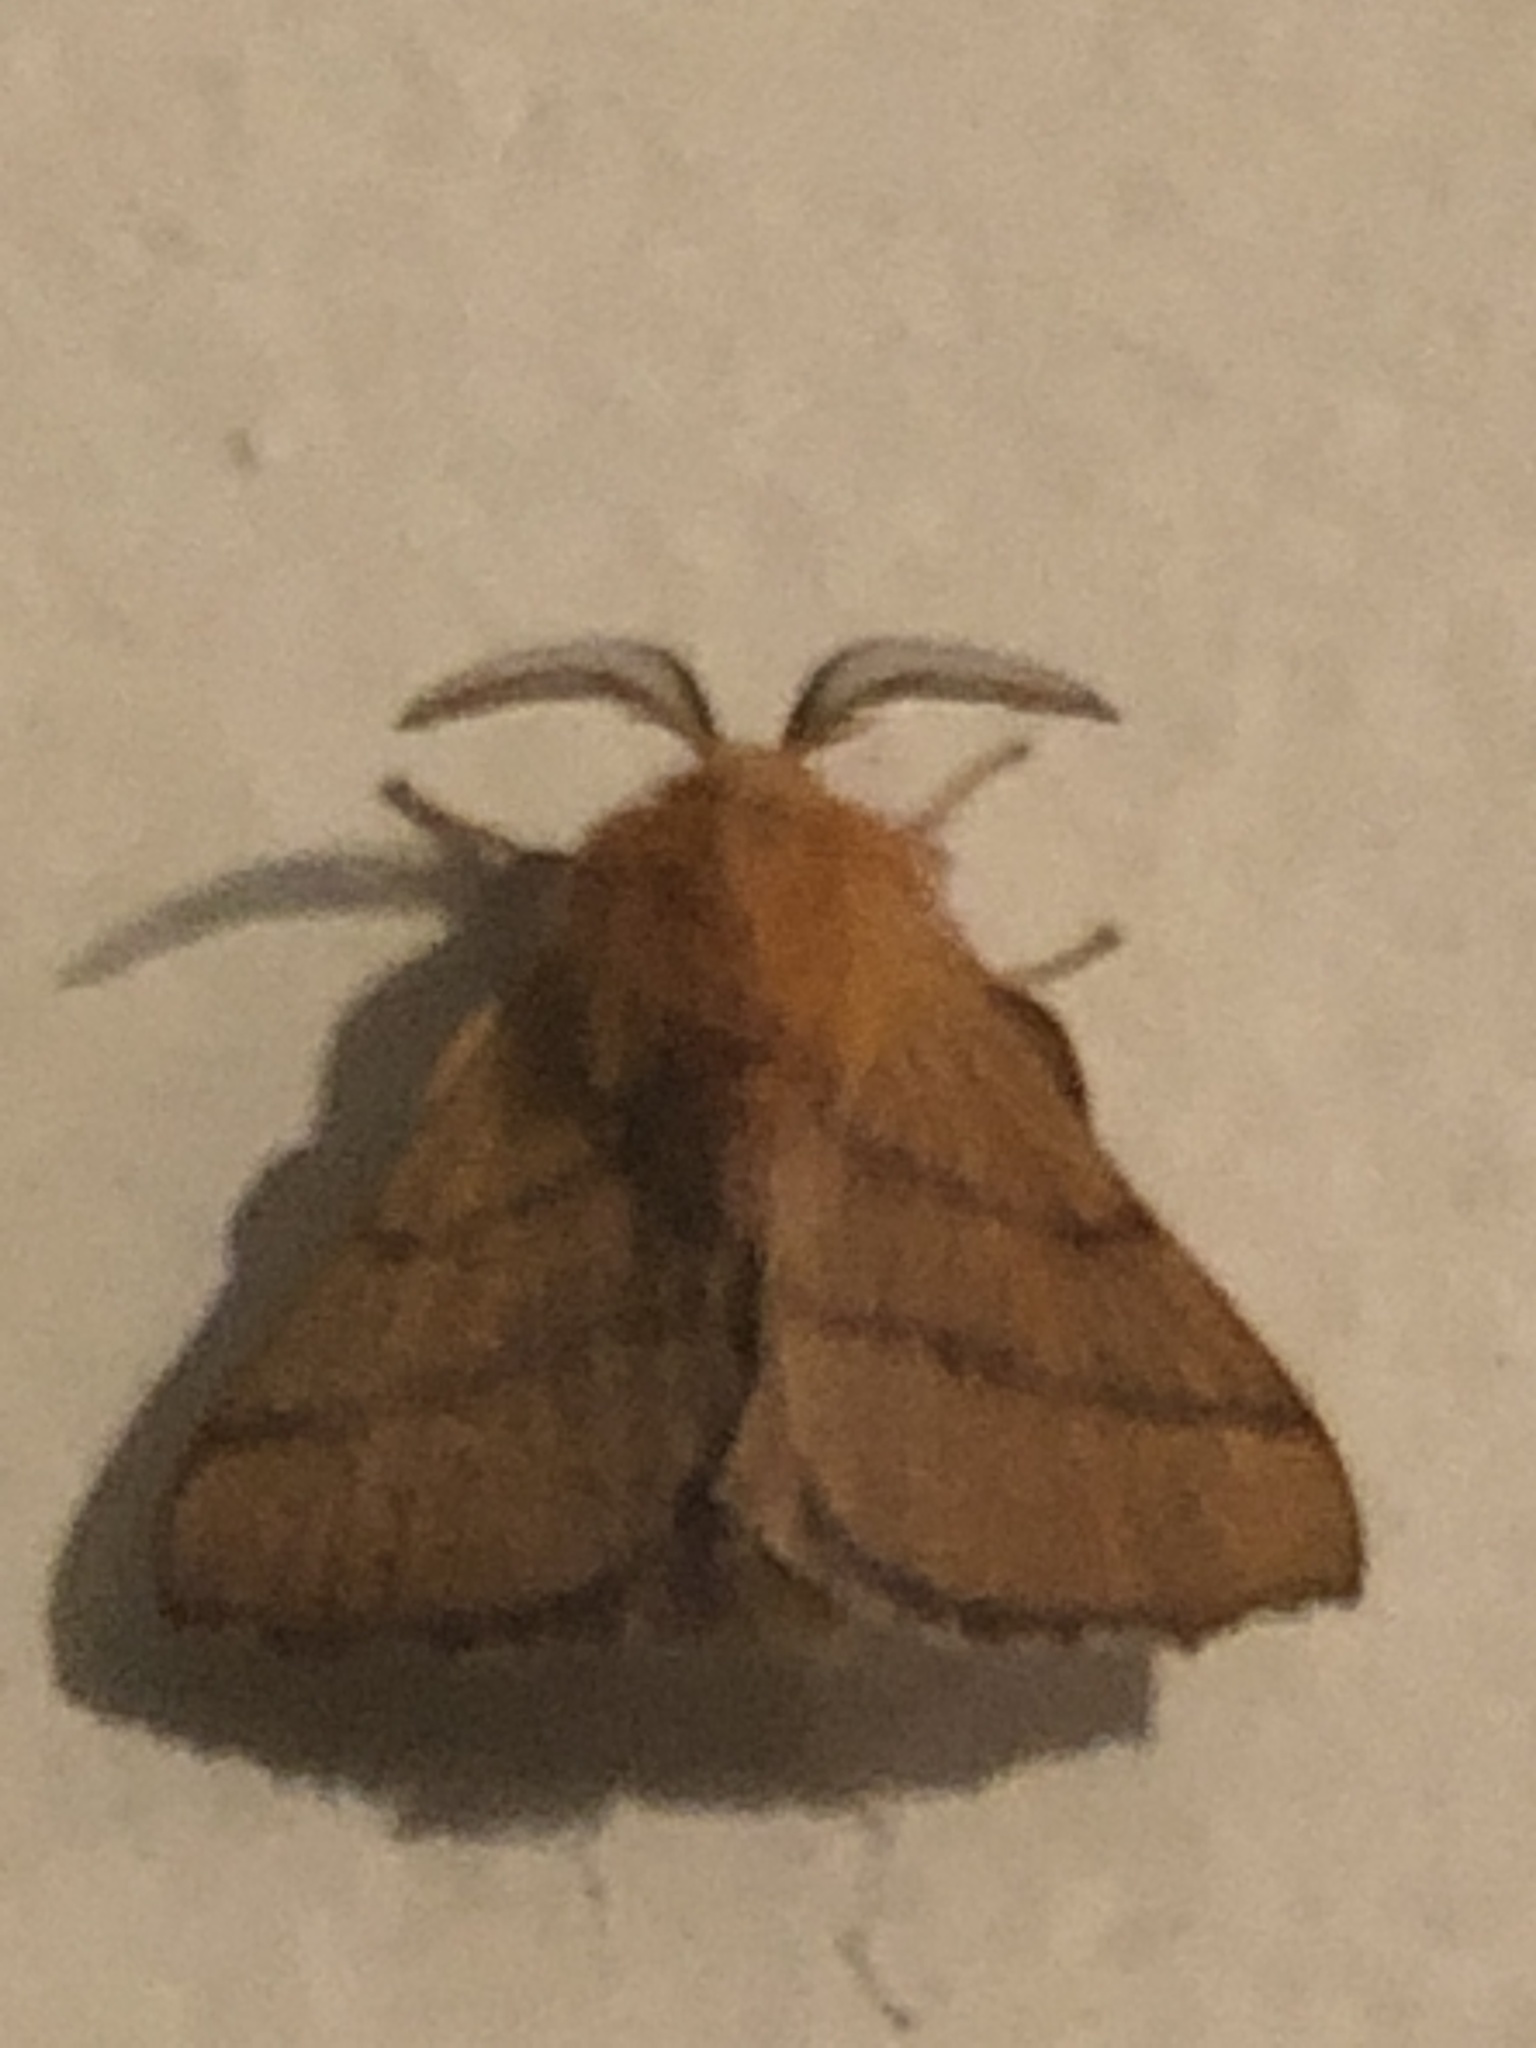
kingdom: Animalia
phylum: Arthropoda
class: Insecta
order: Lepidoptera
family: Lasiocampidae
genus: Malacosoma
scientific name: Malacosoma disstria
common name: Forest tent caterpillar
